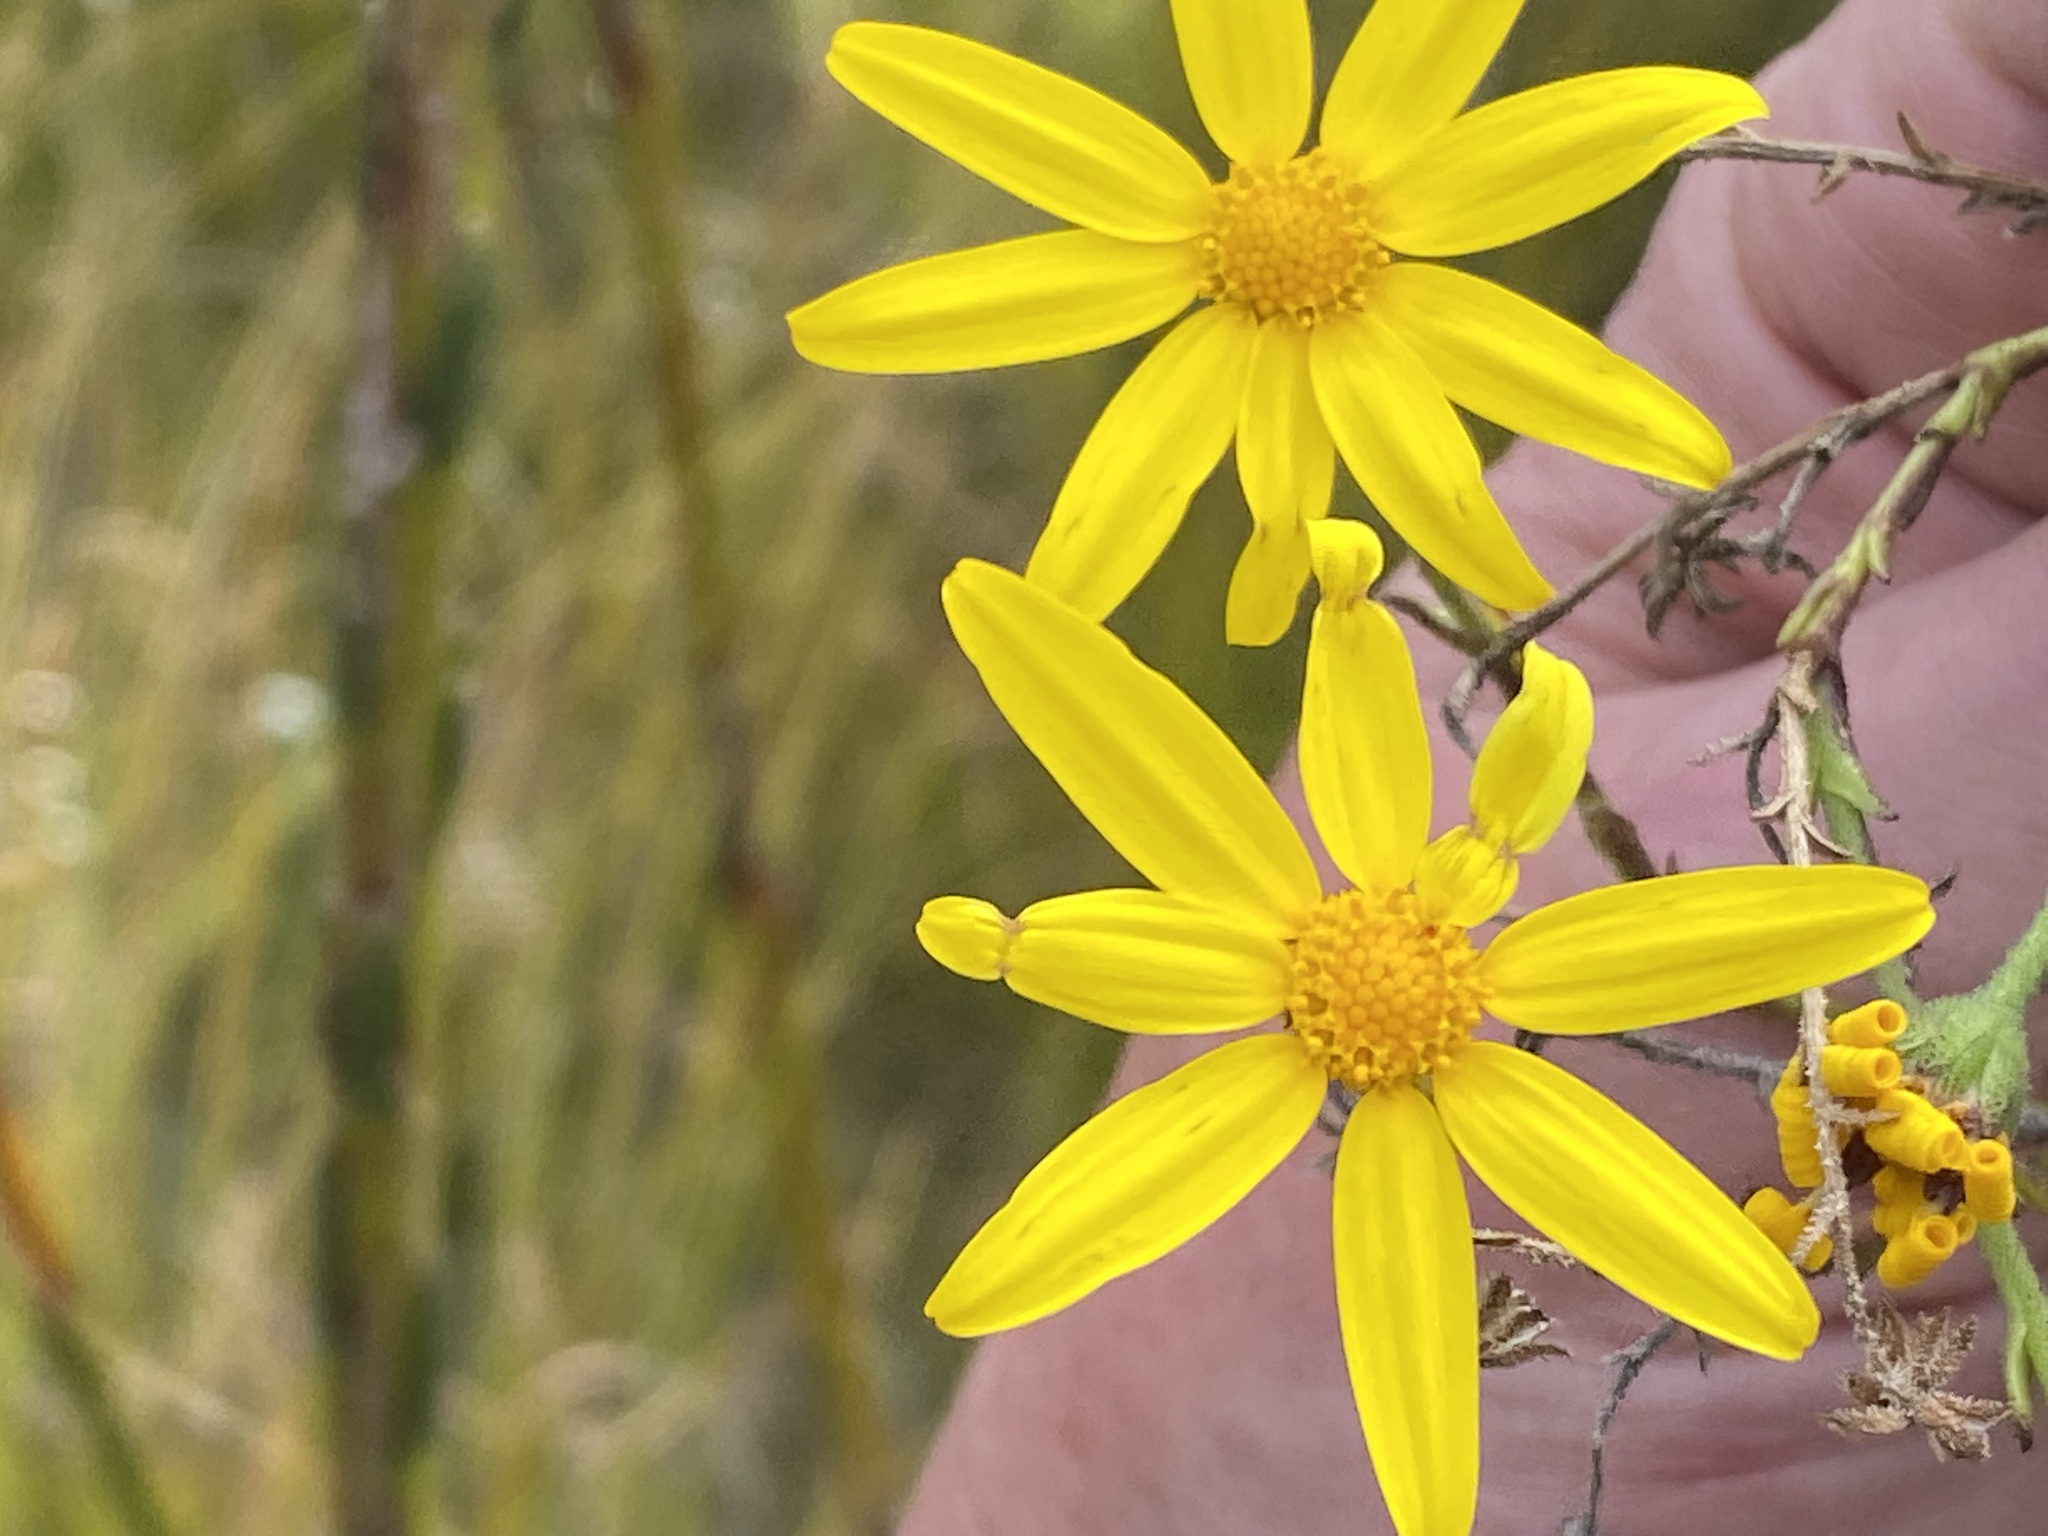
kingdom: Plantae
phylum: Tracheophyta
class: Magnoliopsida
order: Asterales
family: Asteraceae
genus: Osteospermum
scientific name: Osteospermum imbricatum
